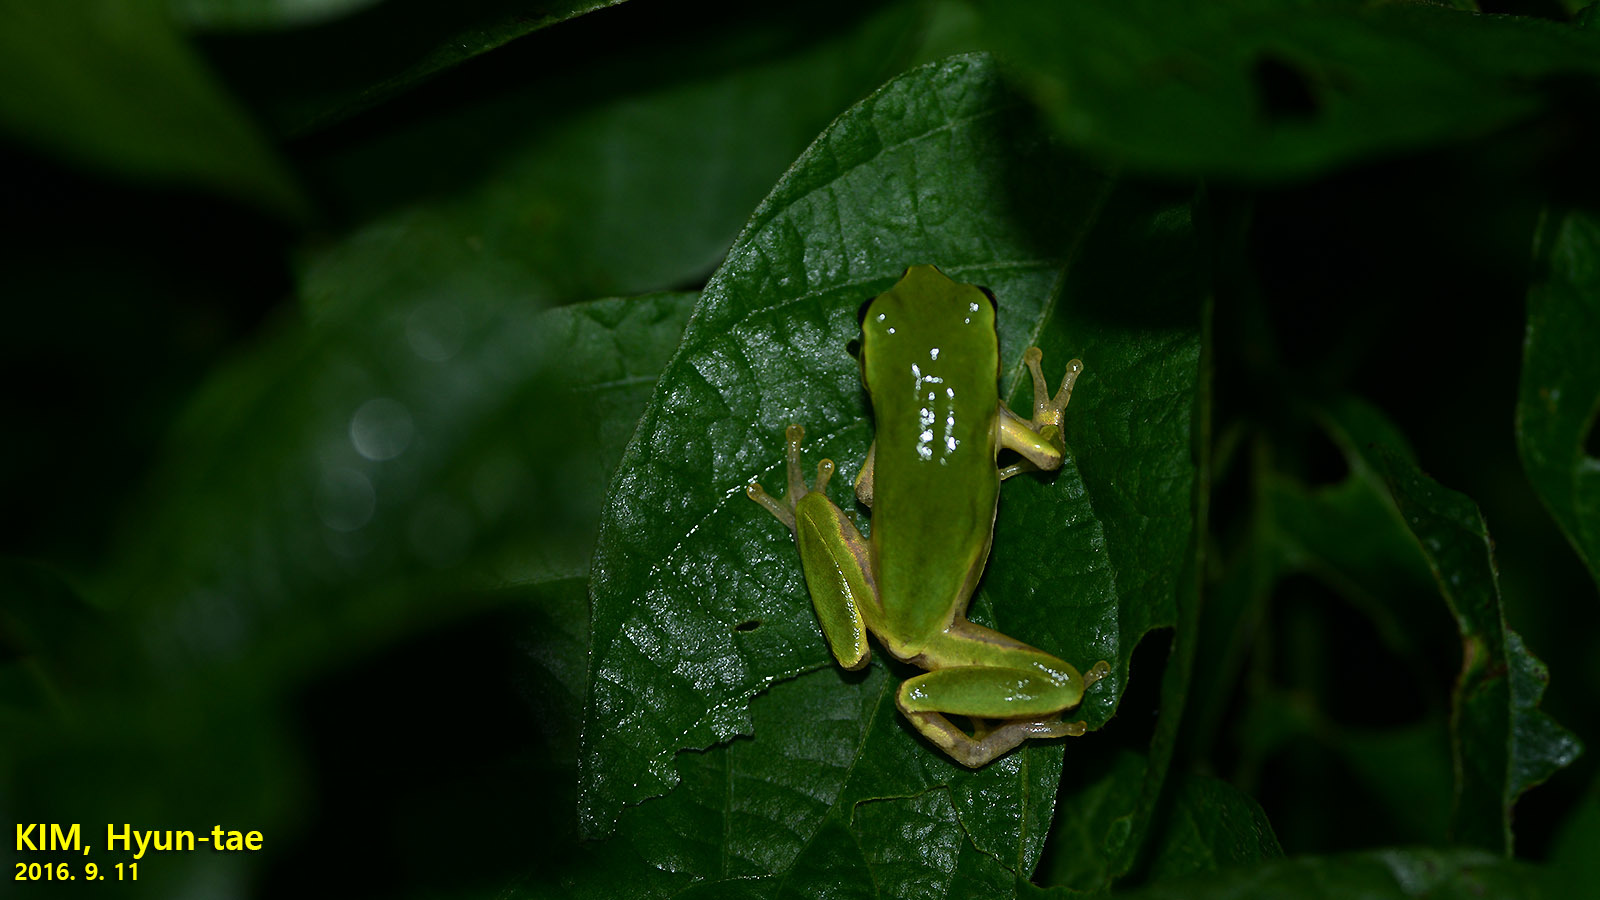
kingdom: Animalia
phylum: Chordata
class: Amphibia
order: Anura
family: Hylidae
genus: Dryophytes
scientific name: Dryophytes japonicus
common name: Japanese treefrog
